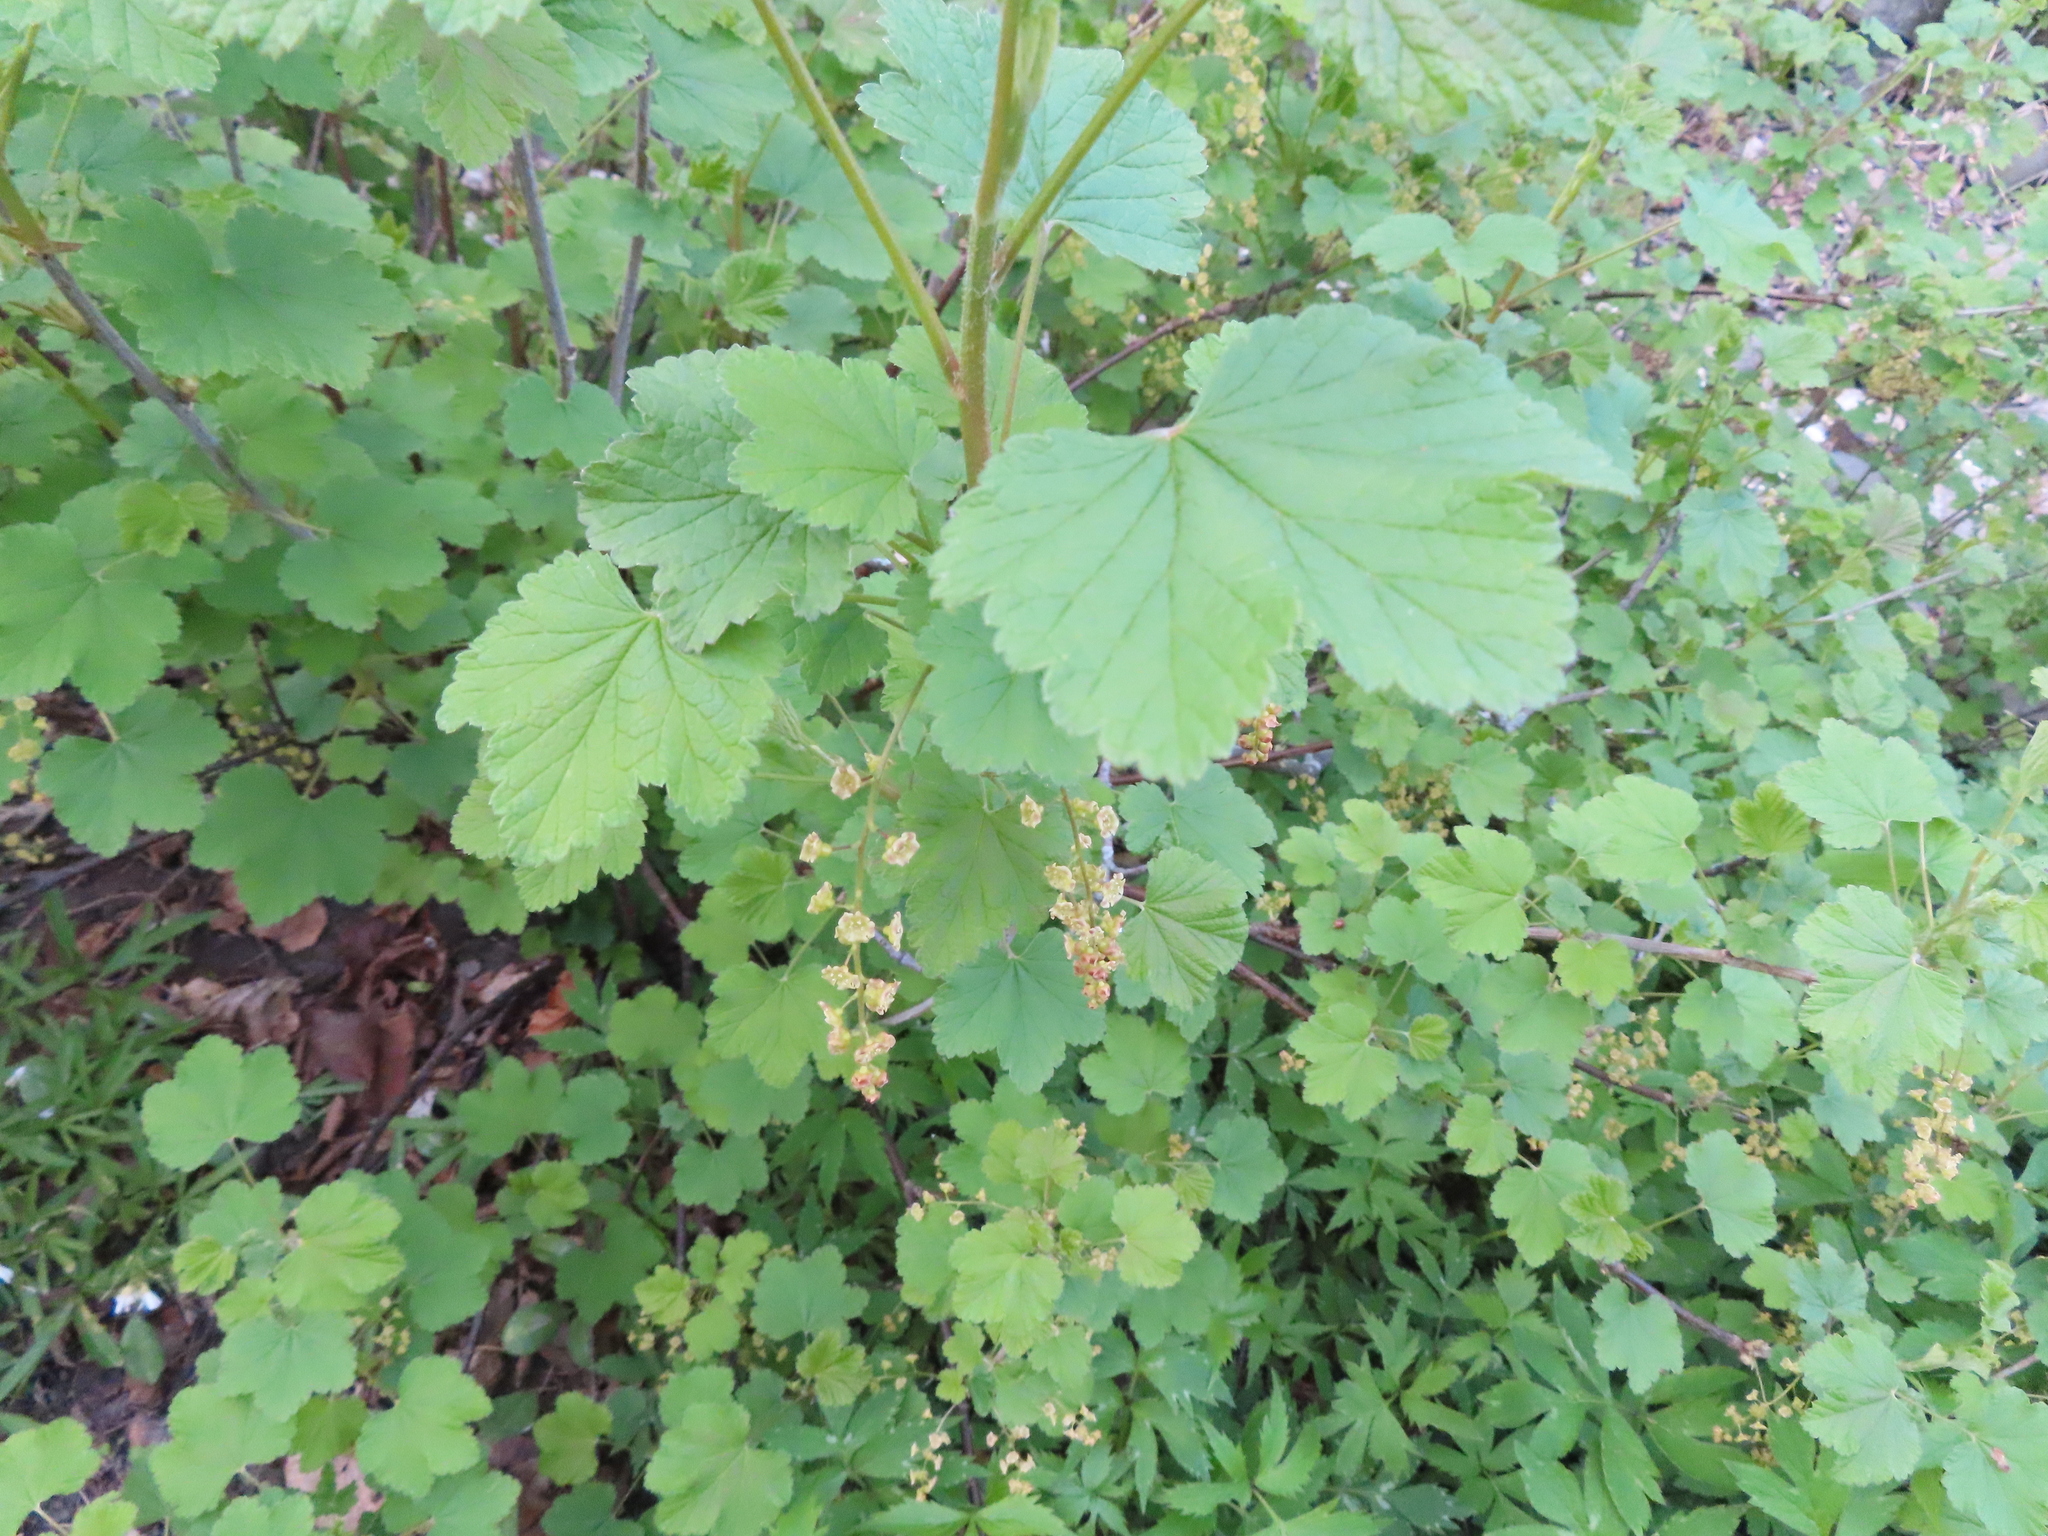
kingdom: Plantae
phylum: Tracheophyta
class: Magnoliopsida
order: Saxifragales
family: Grossulariaceae
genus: Ribes
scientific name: Ribes rubrum
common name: Red currant
